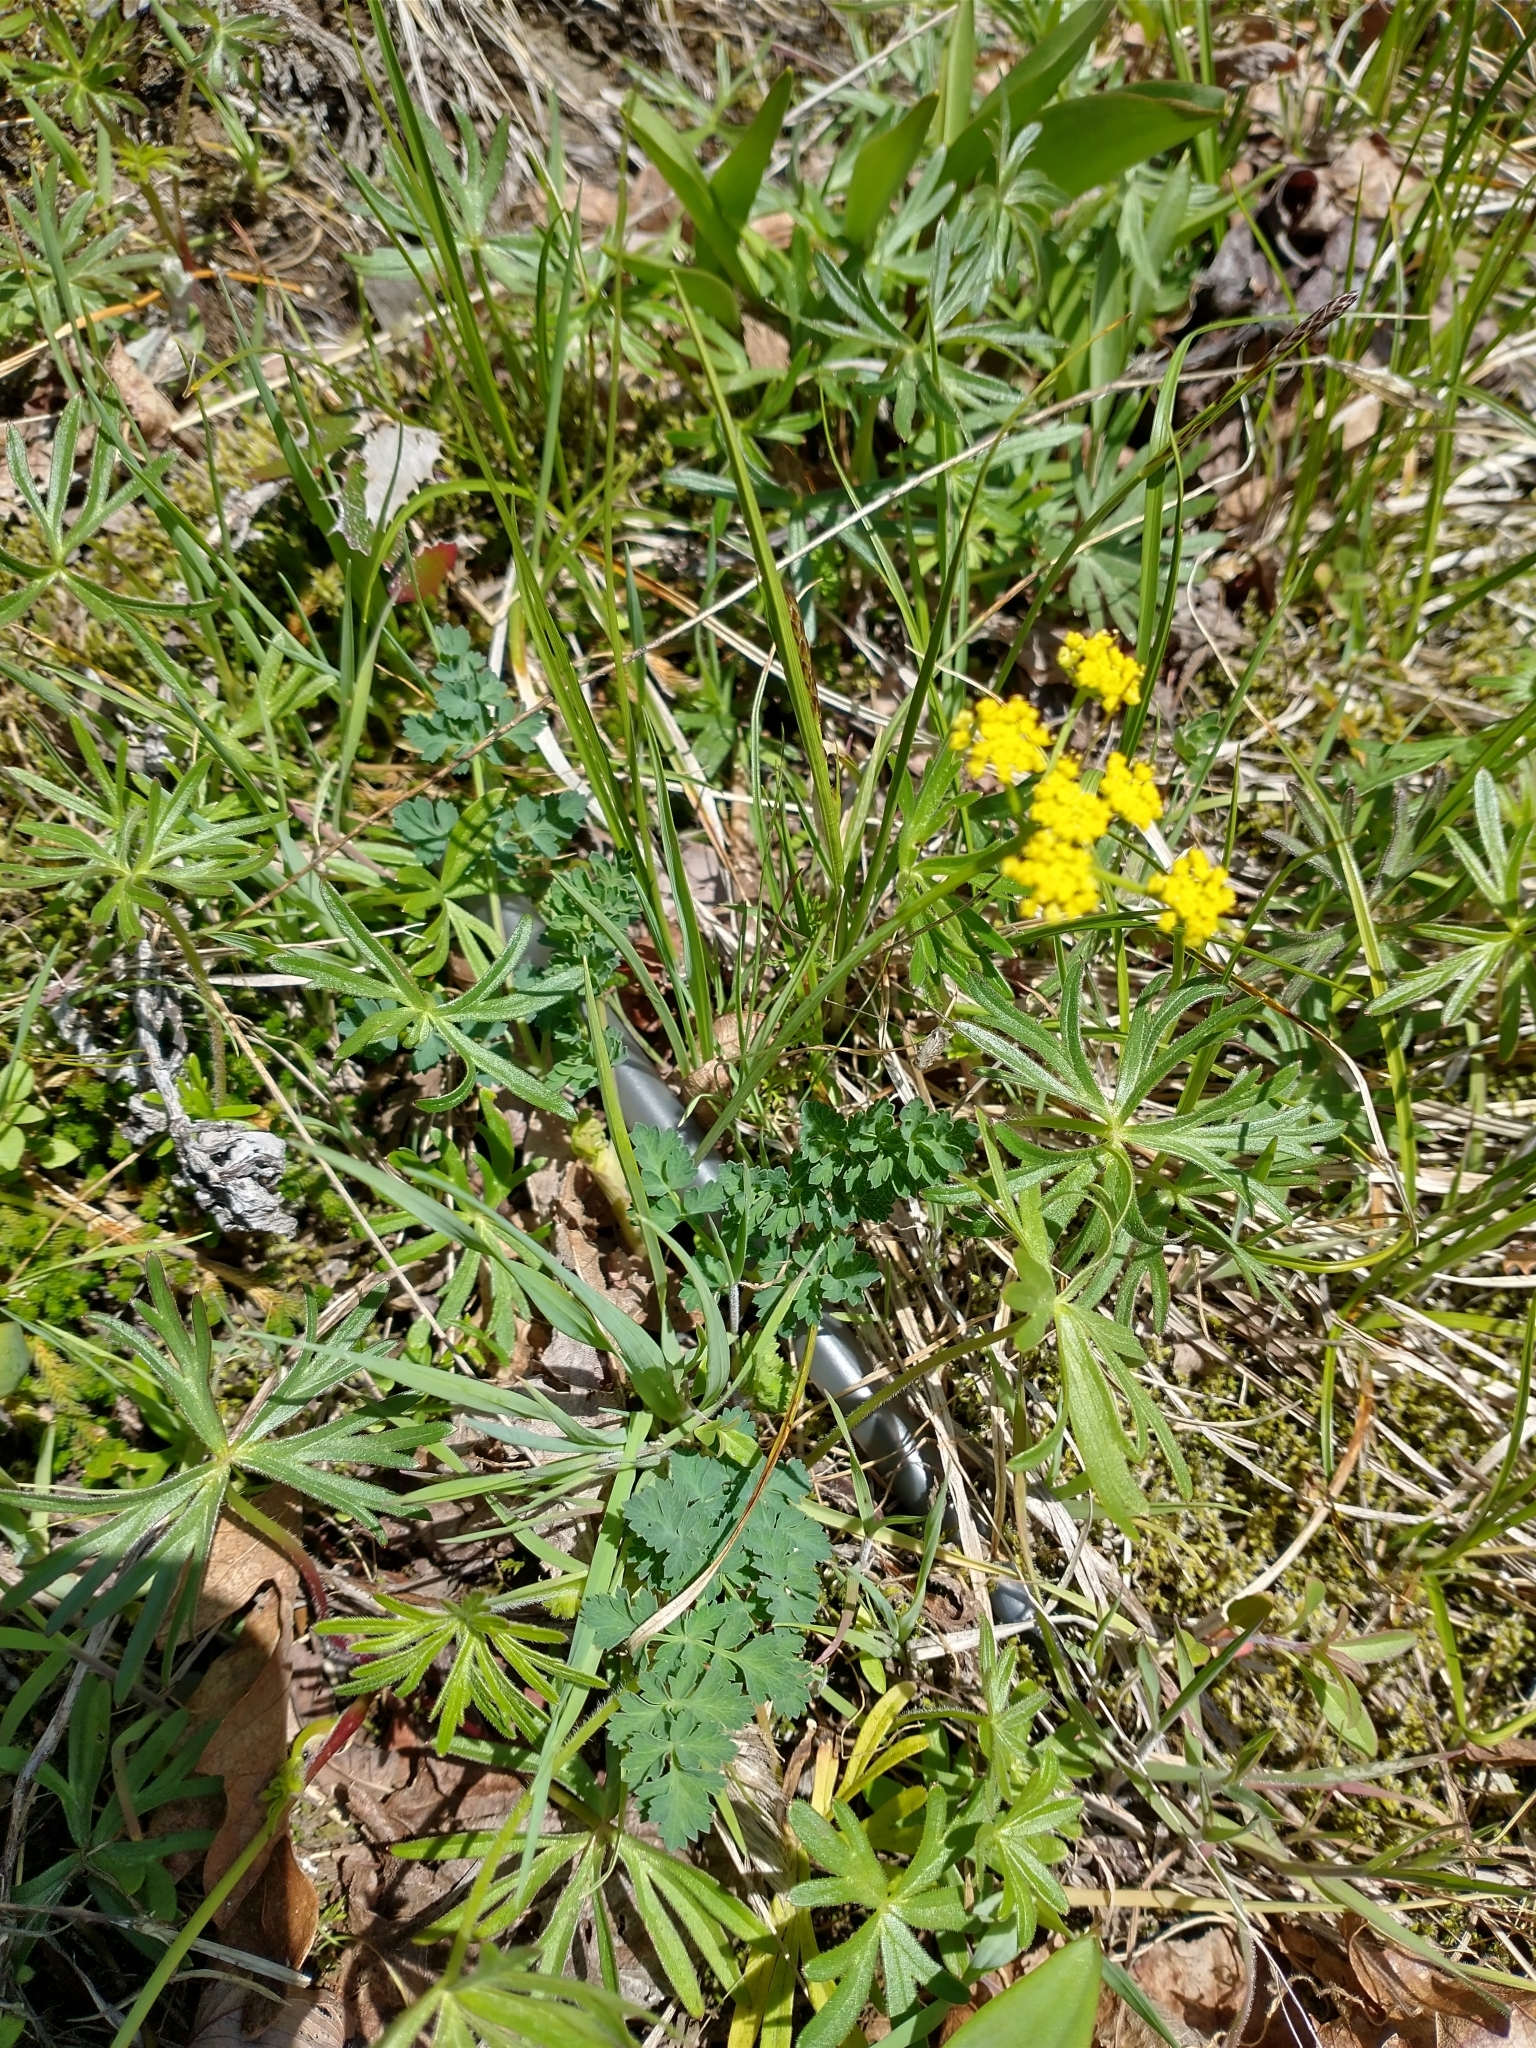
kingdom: Plantae
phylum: Tracheophyta
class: Magnoliopsida
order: Apiales
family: Apiaceae
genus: Lomatium
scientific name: Lomatium martindalei
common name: Cascade desert-parsley
